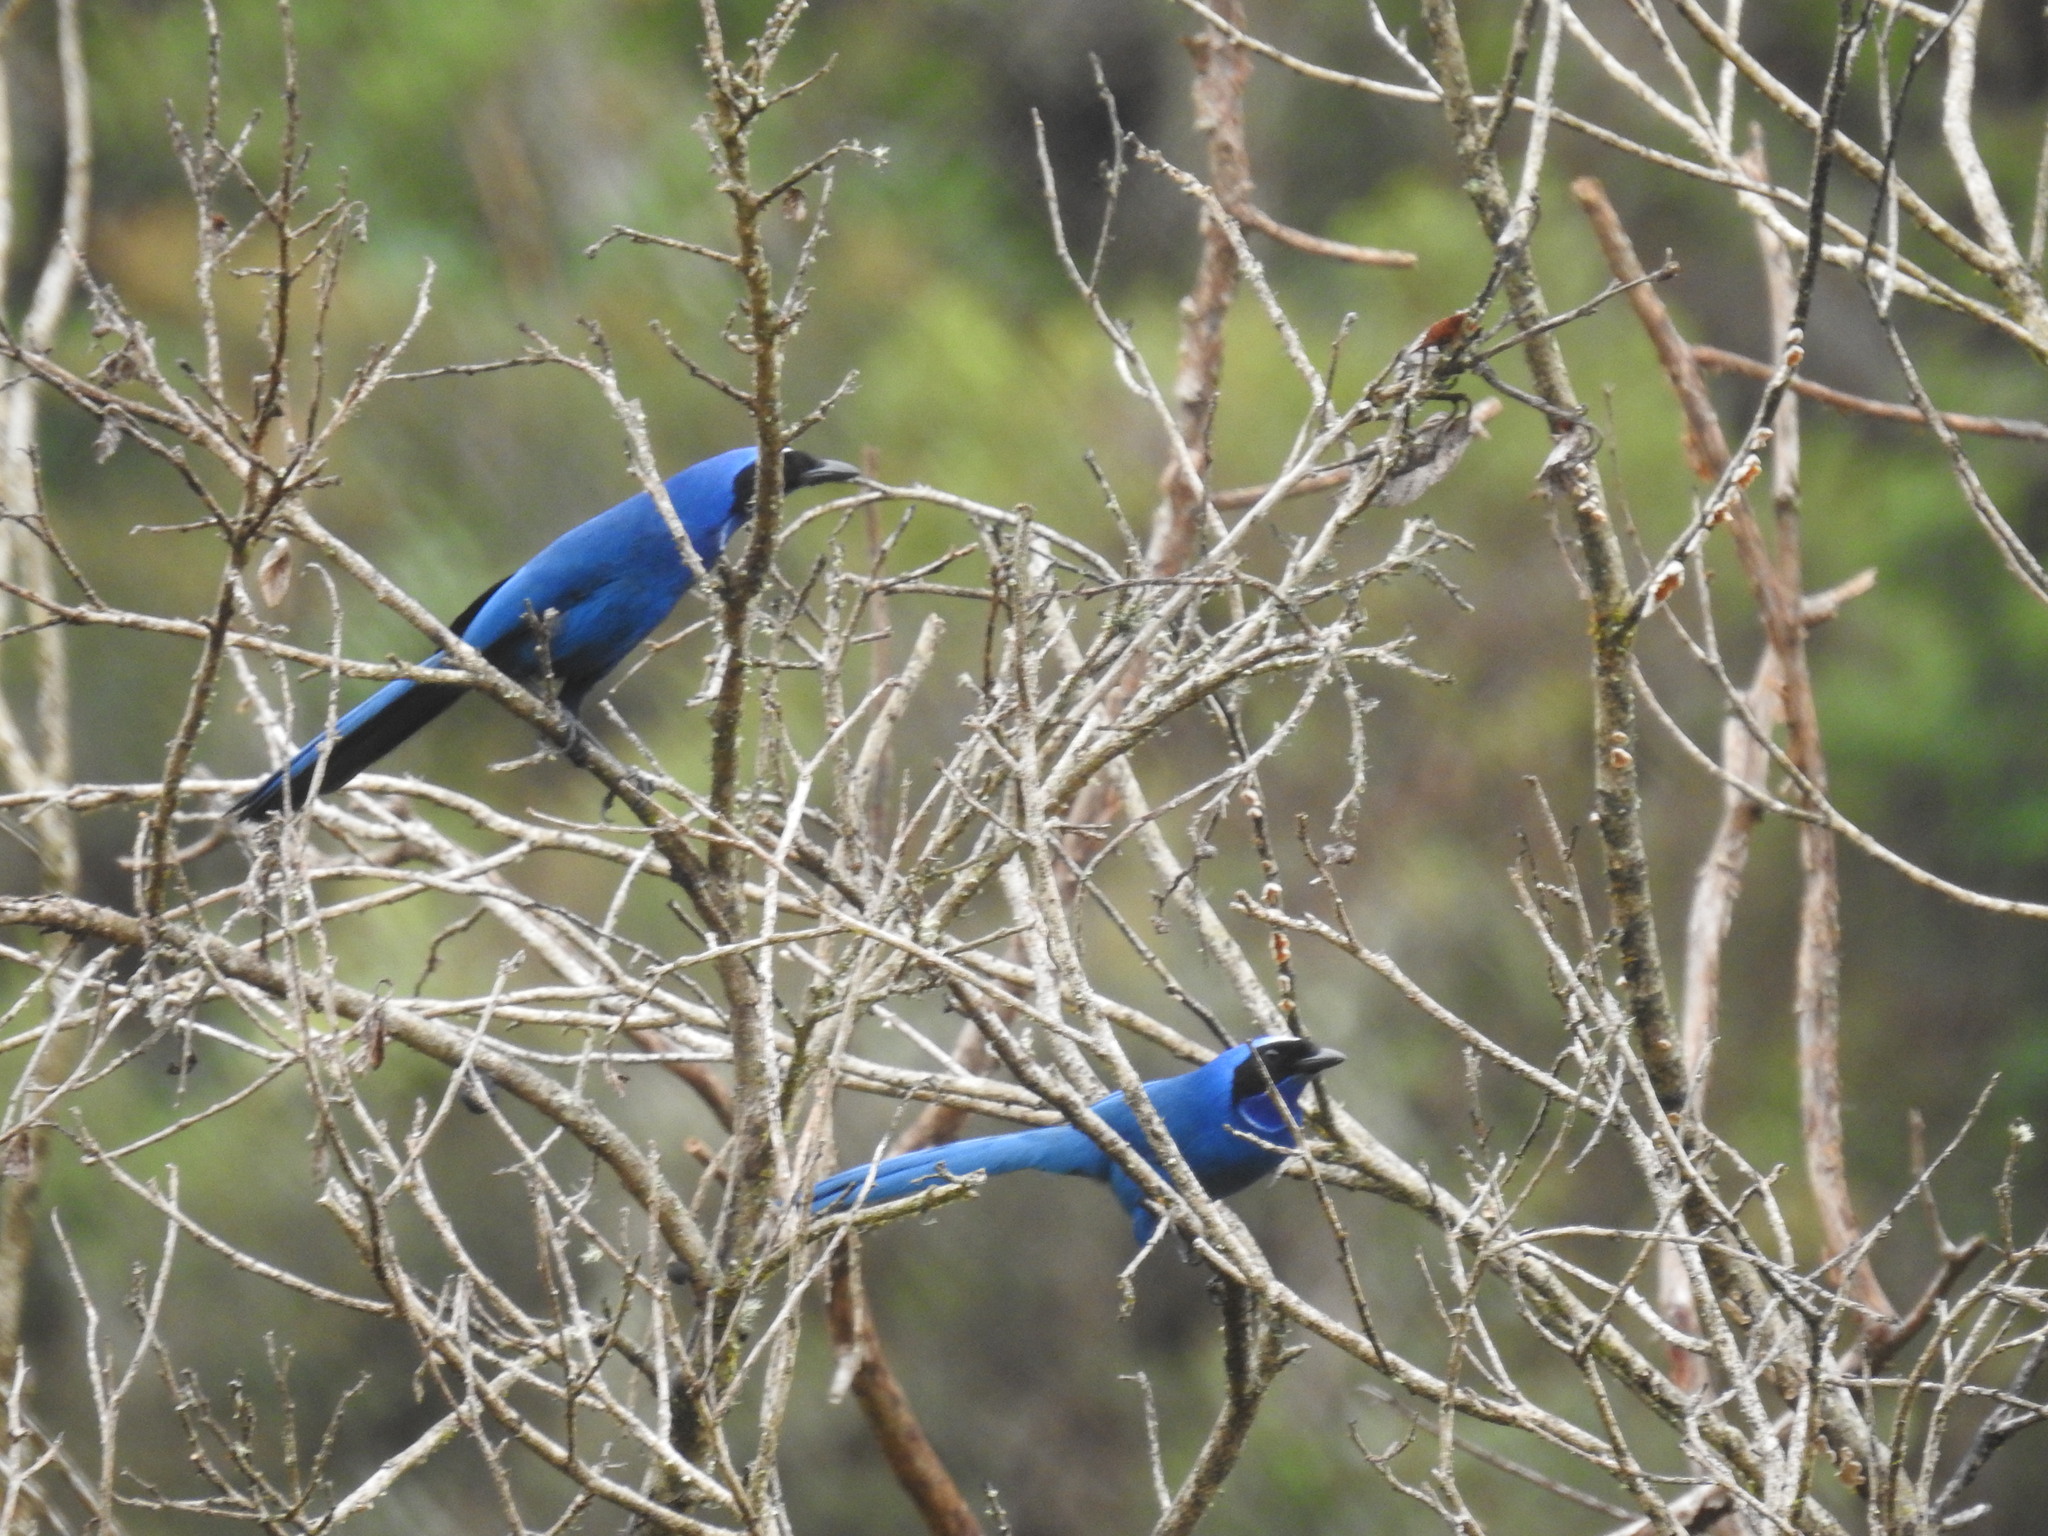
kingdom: Animalia
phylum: Chordata
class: Aves
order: Passeriformes
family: Corvidae
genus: Cyanolyca
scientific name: Cyanolyca viridicyanus
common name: White-collared jay
